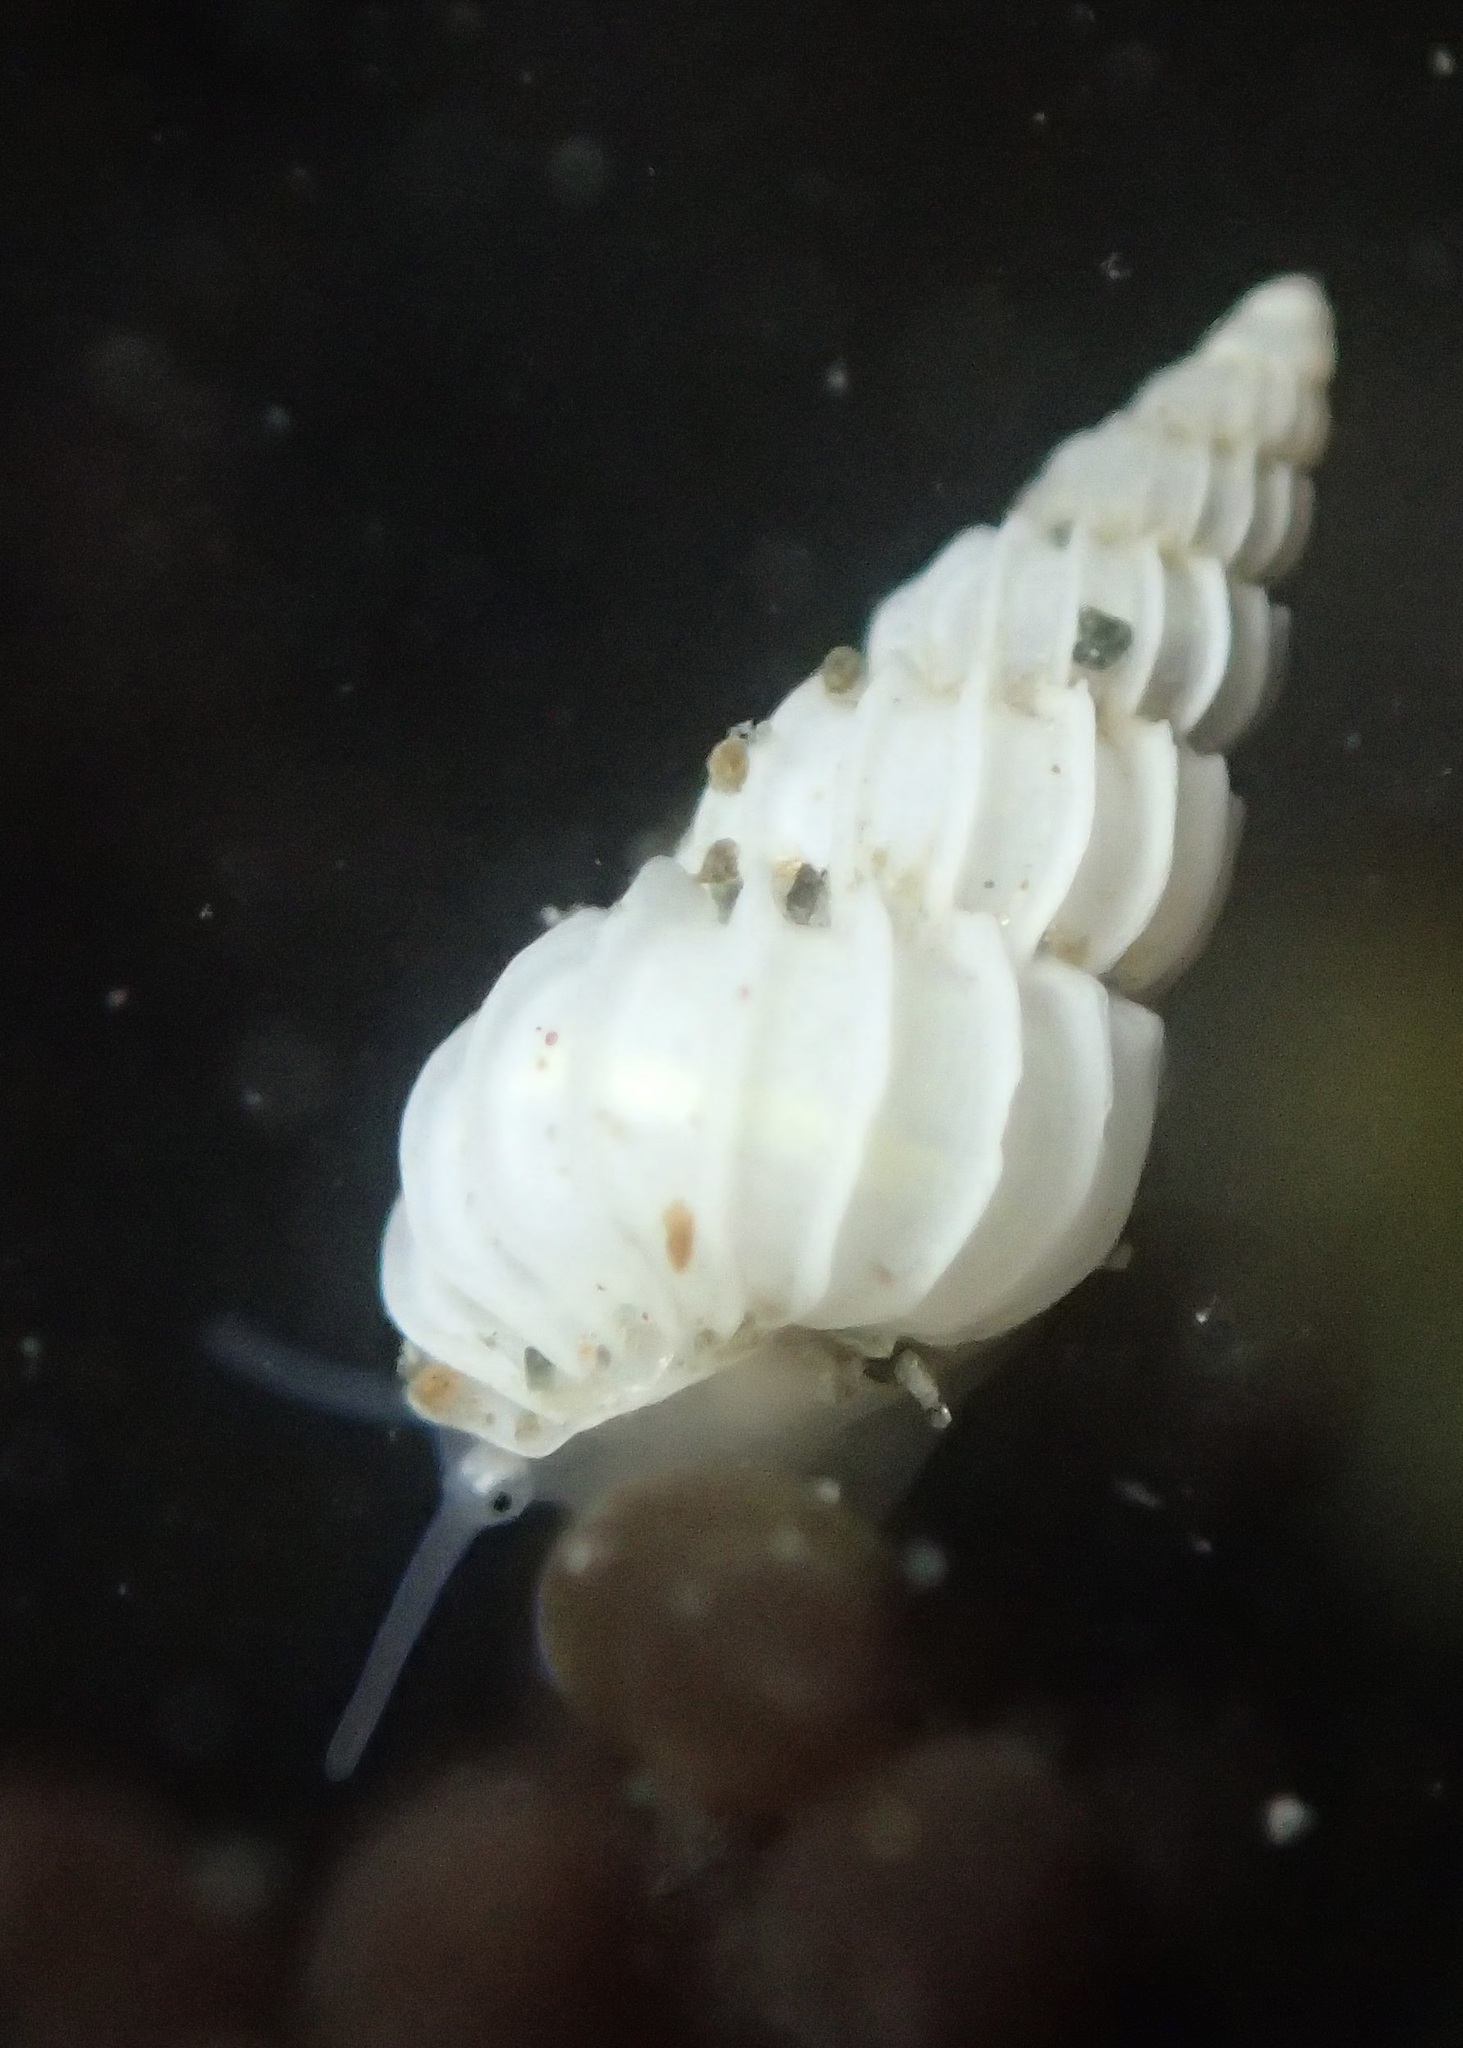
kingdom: Animalia
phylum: Mollusca
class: Gastropoda
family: Epitoniidae
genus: Epitonium
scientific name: Epitonium tinctum
